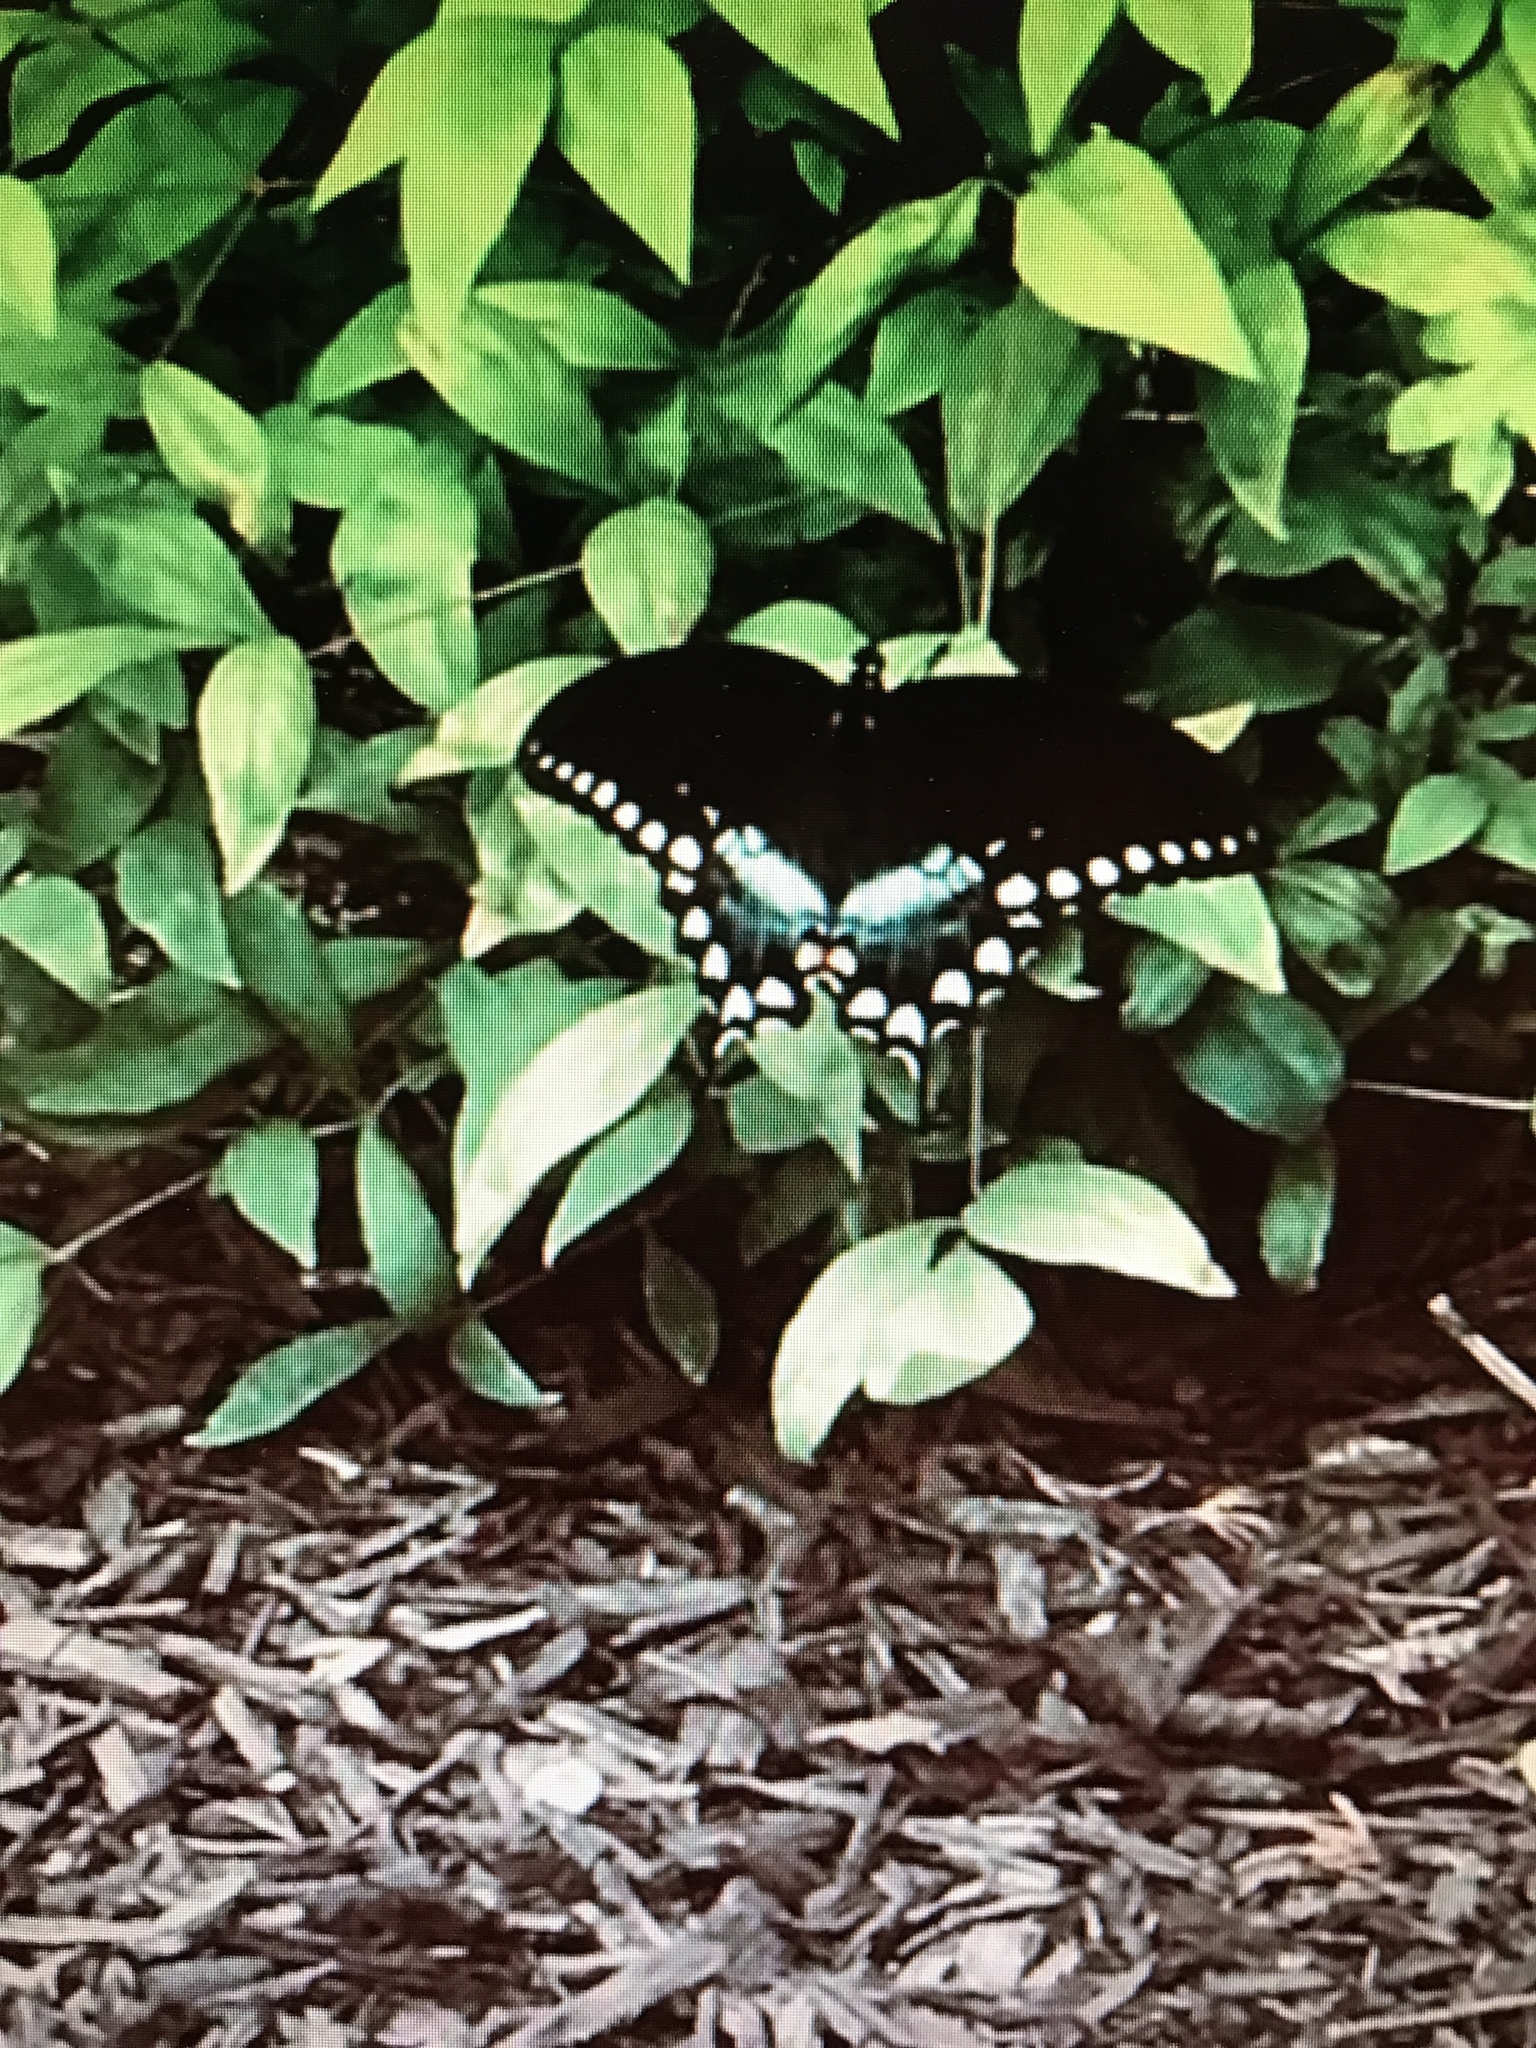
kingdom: Animalia
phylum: Arthropoda
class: Insecta
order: Lepidoptera
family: Papilionidae
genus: Papilio
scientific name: Papilio troilus
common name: Spicebush swallowtail
